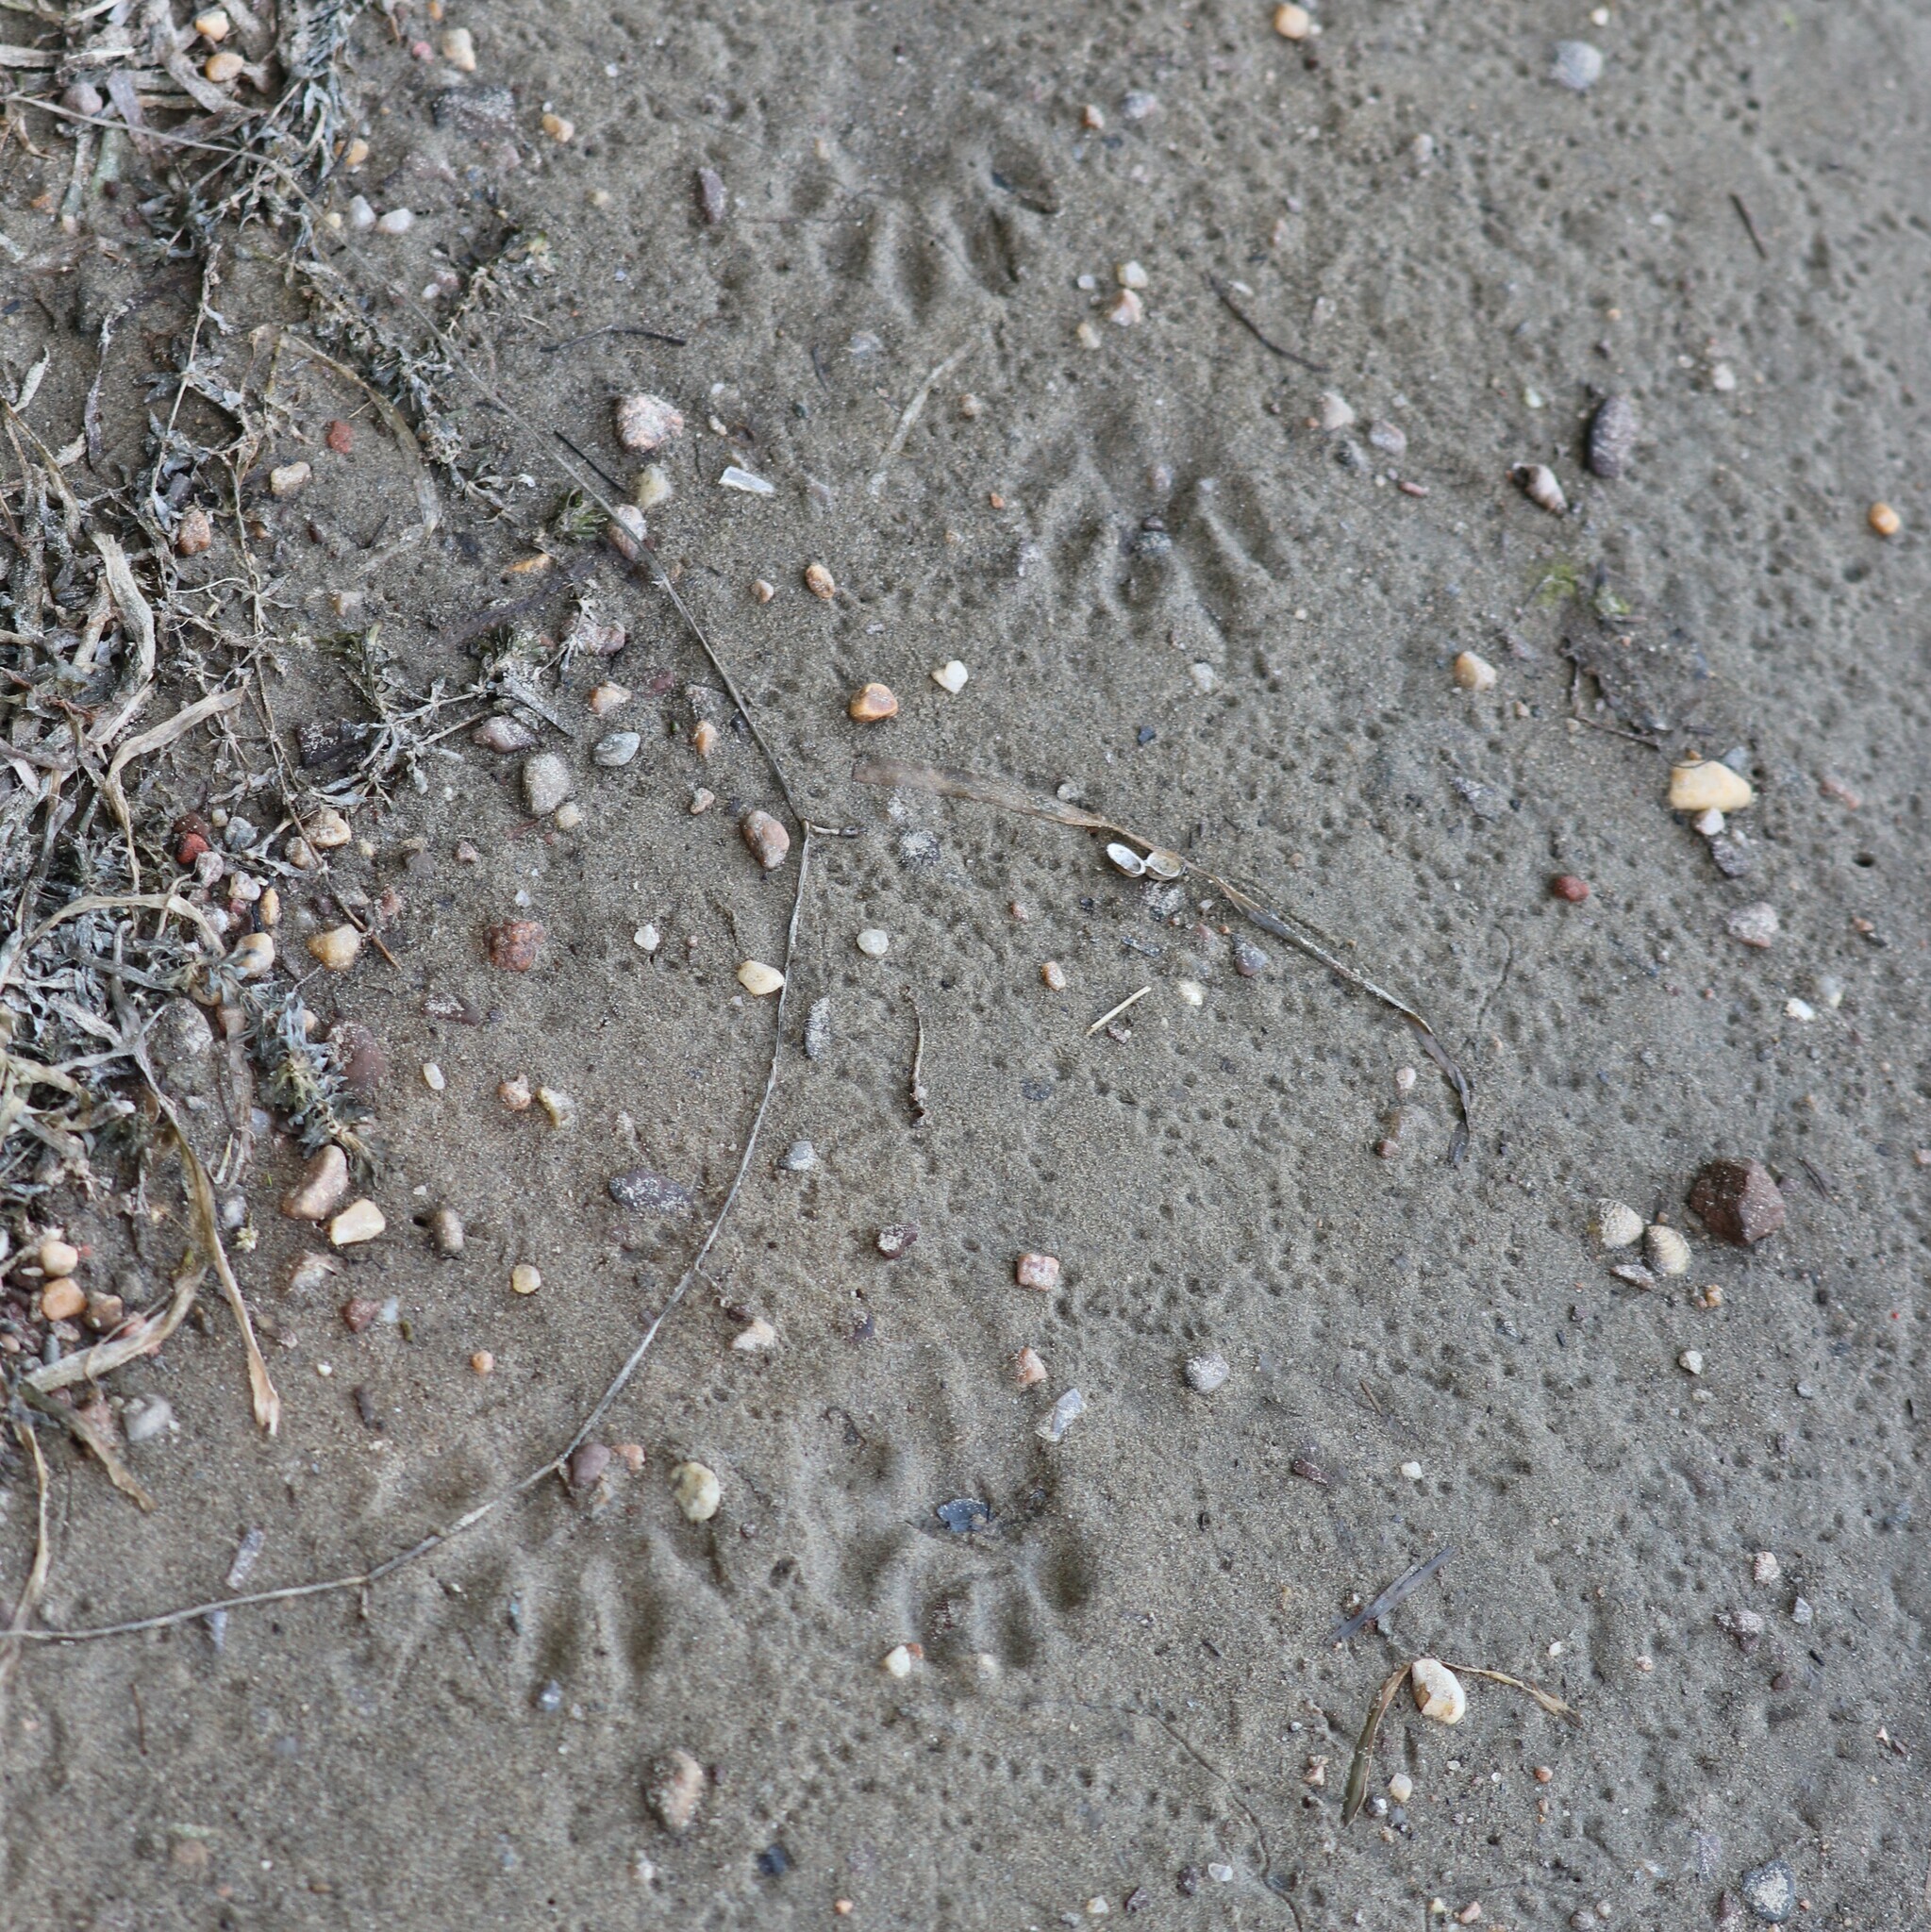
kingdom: Animalia
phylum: Chordata
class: Mammalia
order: Carnivora
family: Procyonidae
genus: Procyon
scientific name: Procyon lotor
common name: Raccoon
